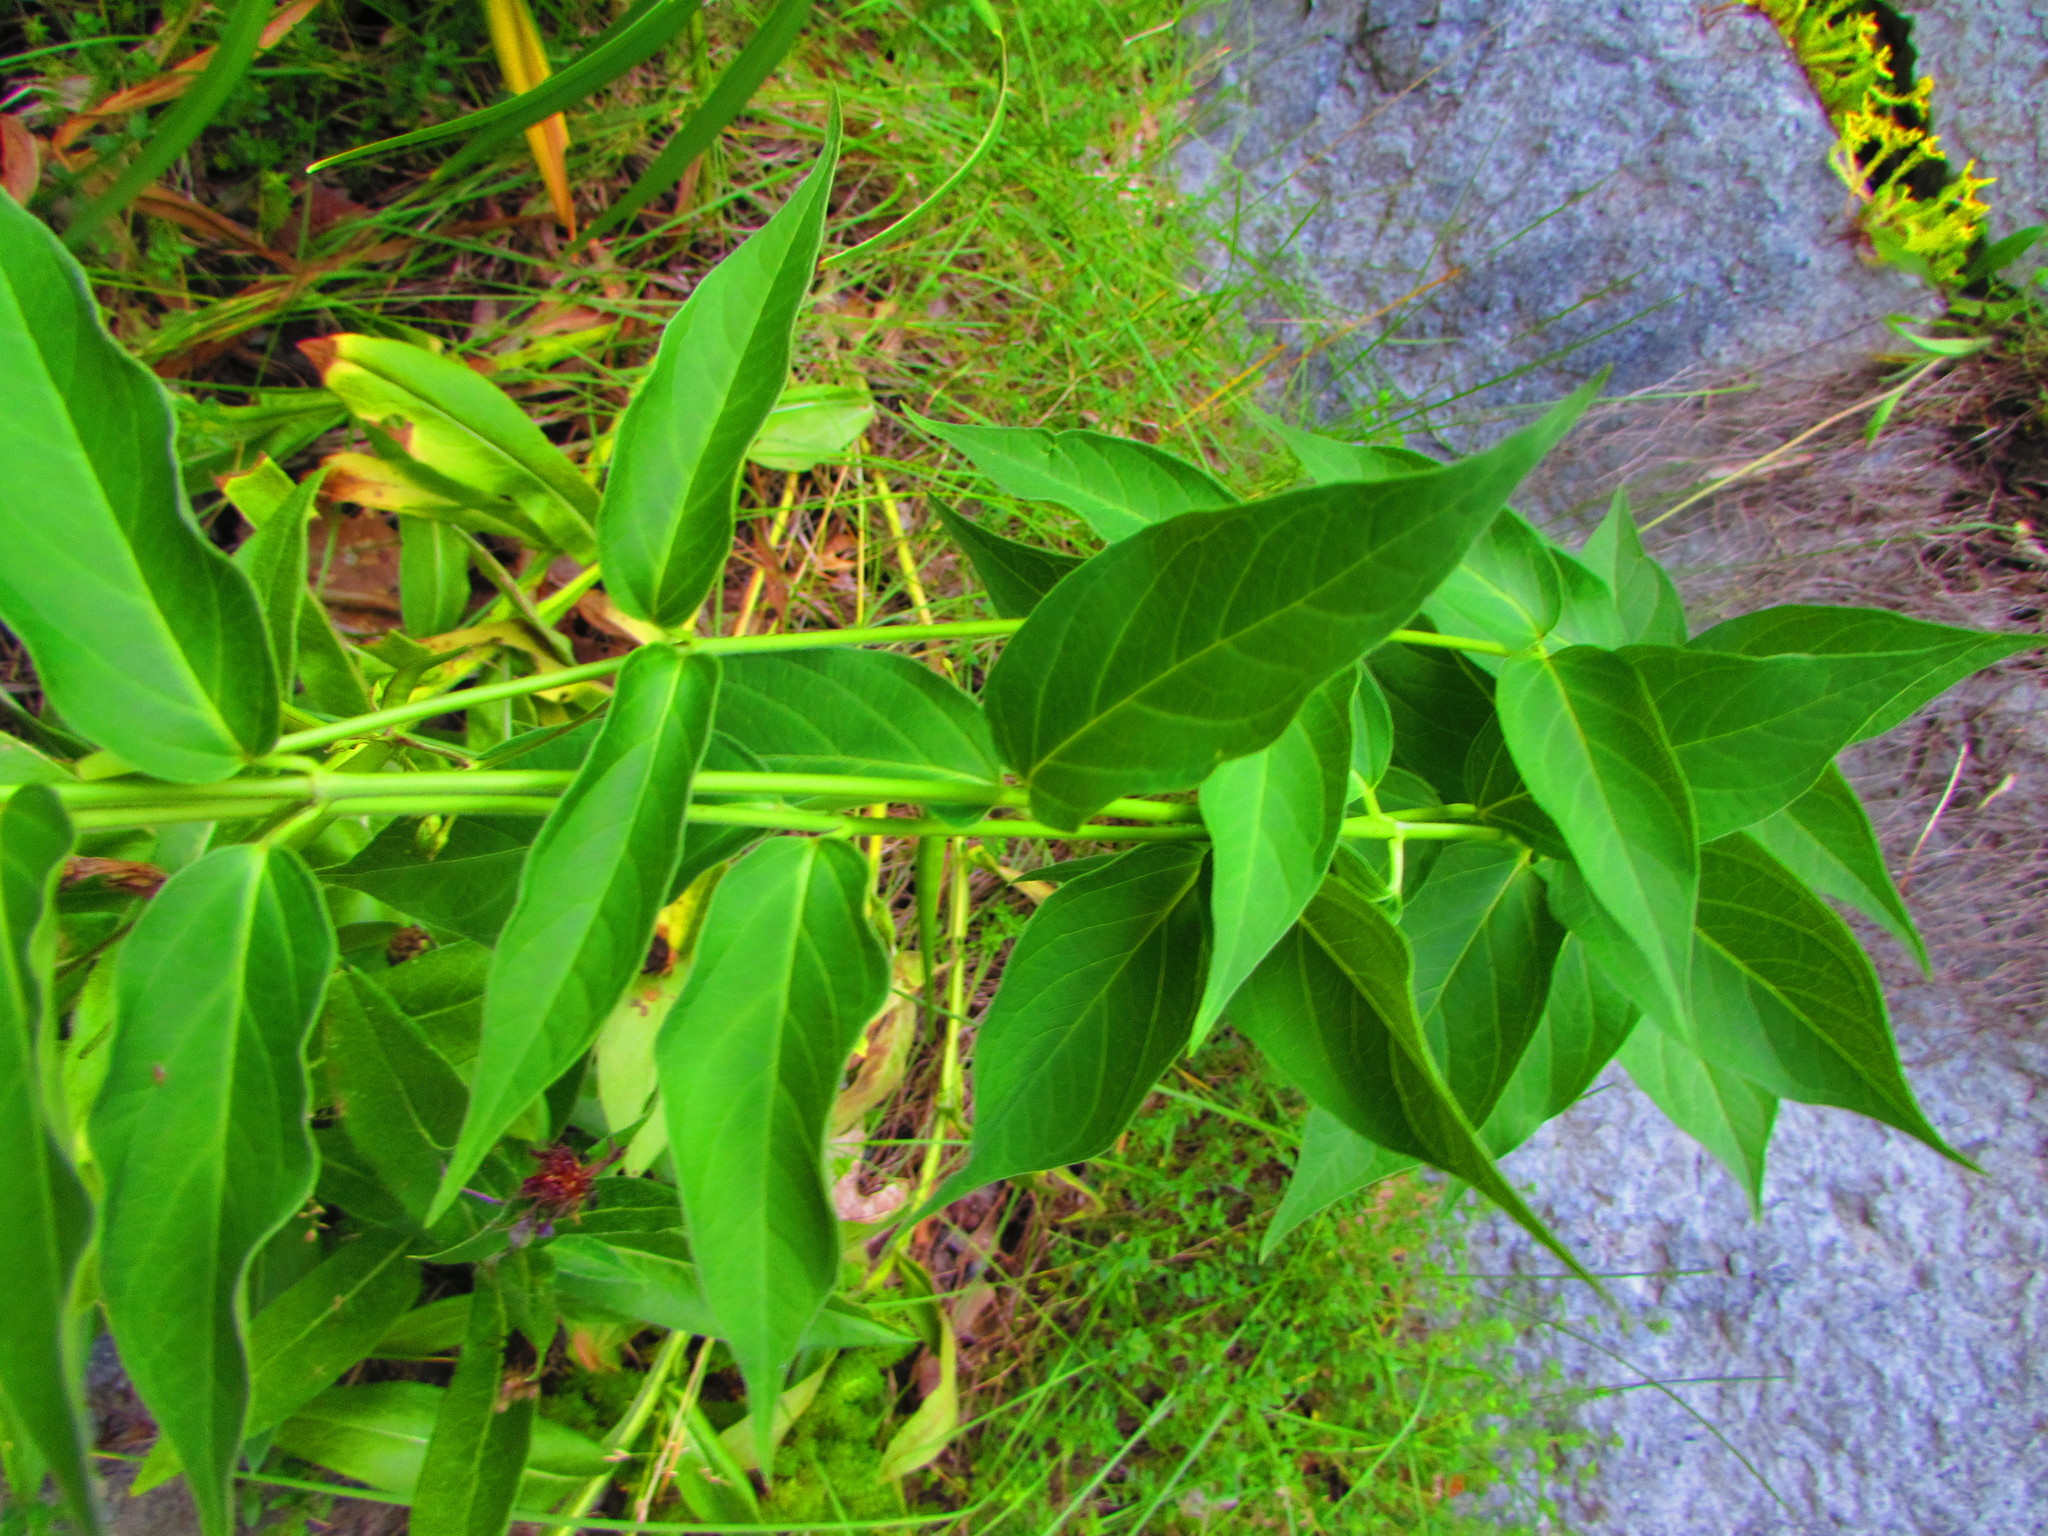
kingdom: Plantae
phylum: Tracheophyta
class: Magnoliopsida
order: Gentianales
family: Apocynaceae
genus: Vincetoxicum
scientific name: Vincetoxicum rossicum
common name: Dog-strangling vine
